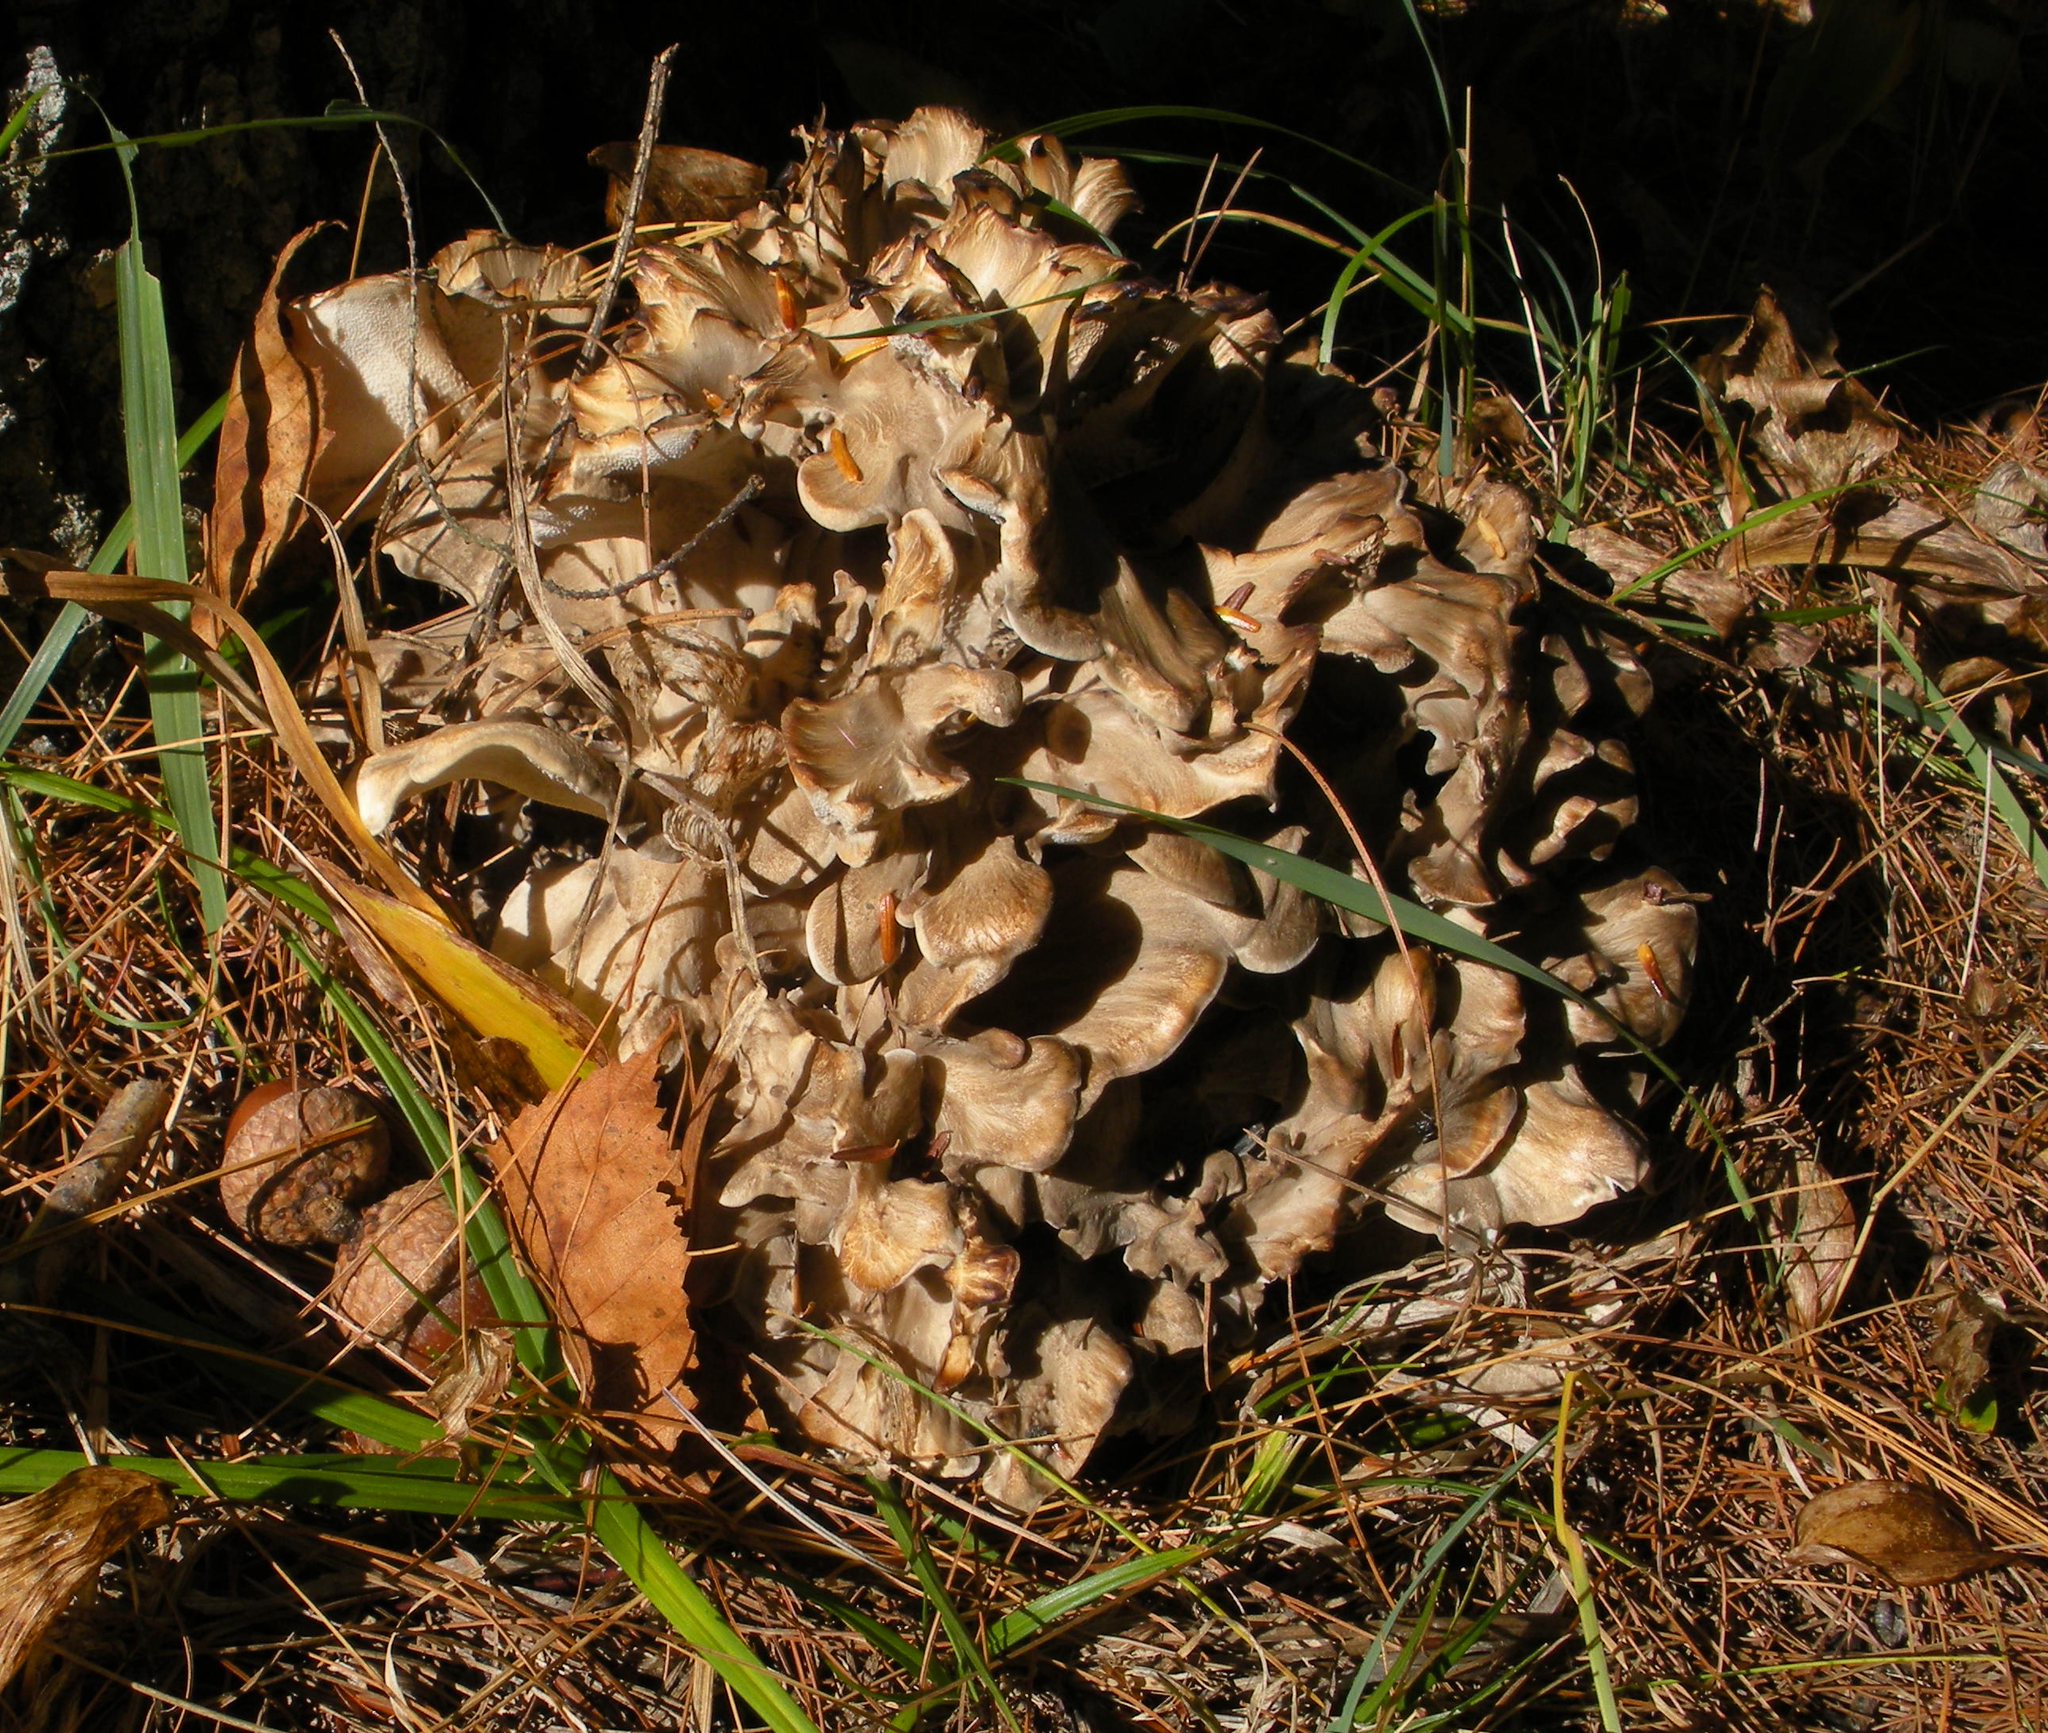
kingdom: Fungi
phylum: Basidiomycota
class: Agaricomycetes
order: Polyporales
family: Grifolaceae
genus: Grifola
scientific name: Grifola frondosa
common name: Hen of the woods
